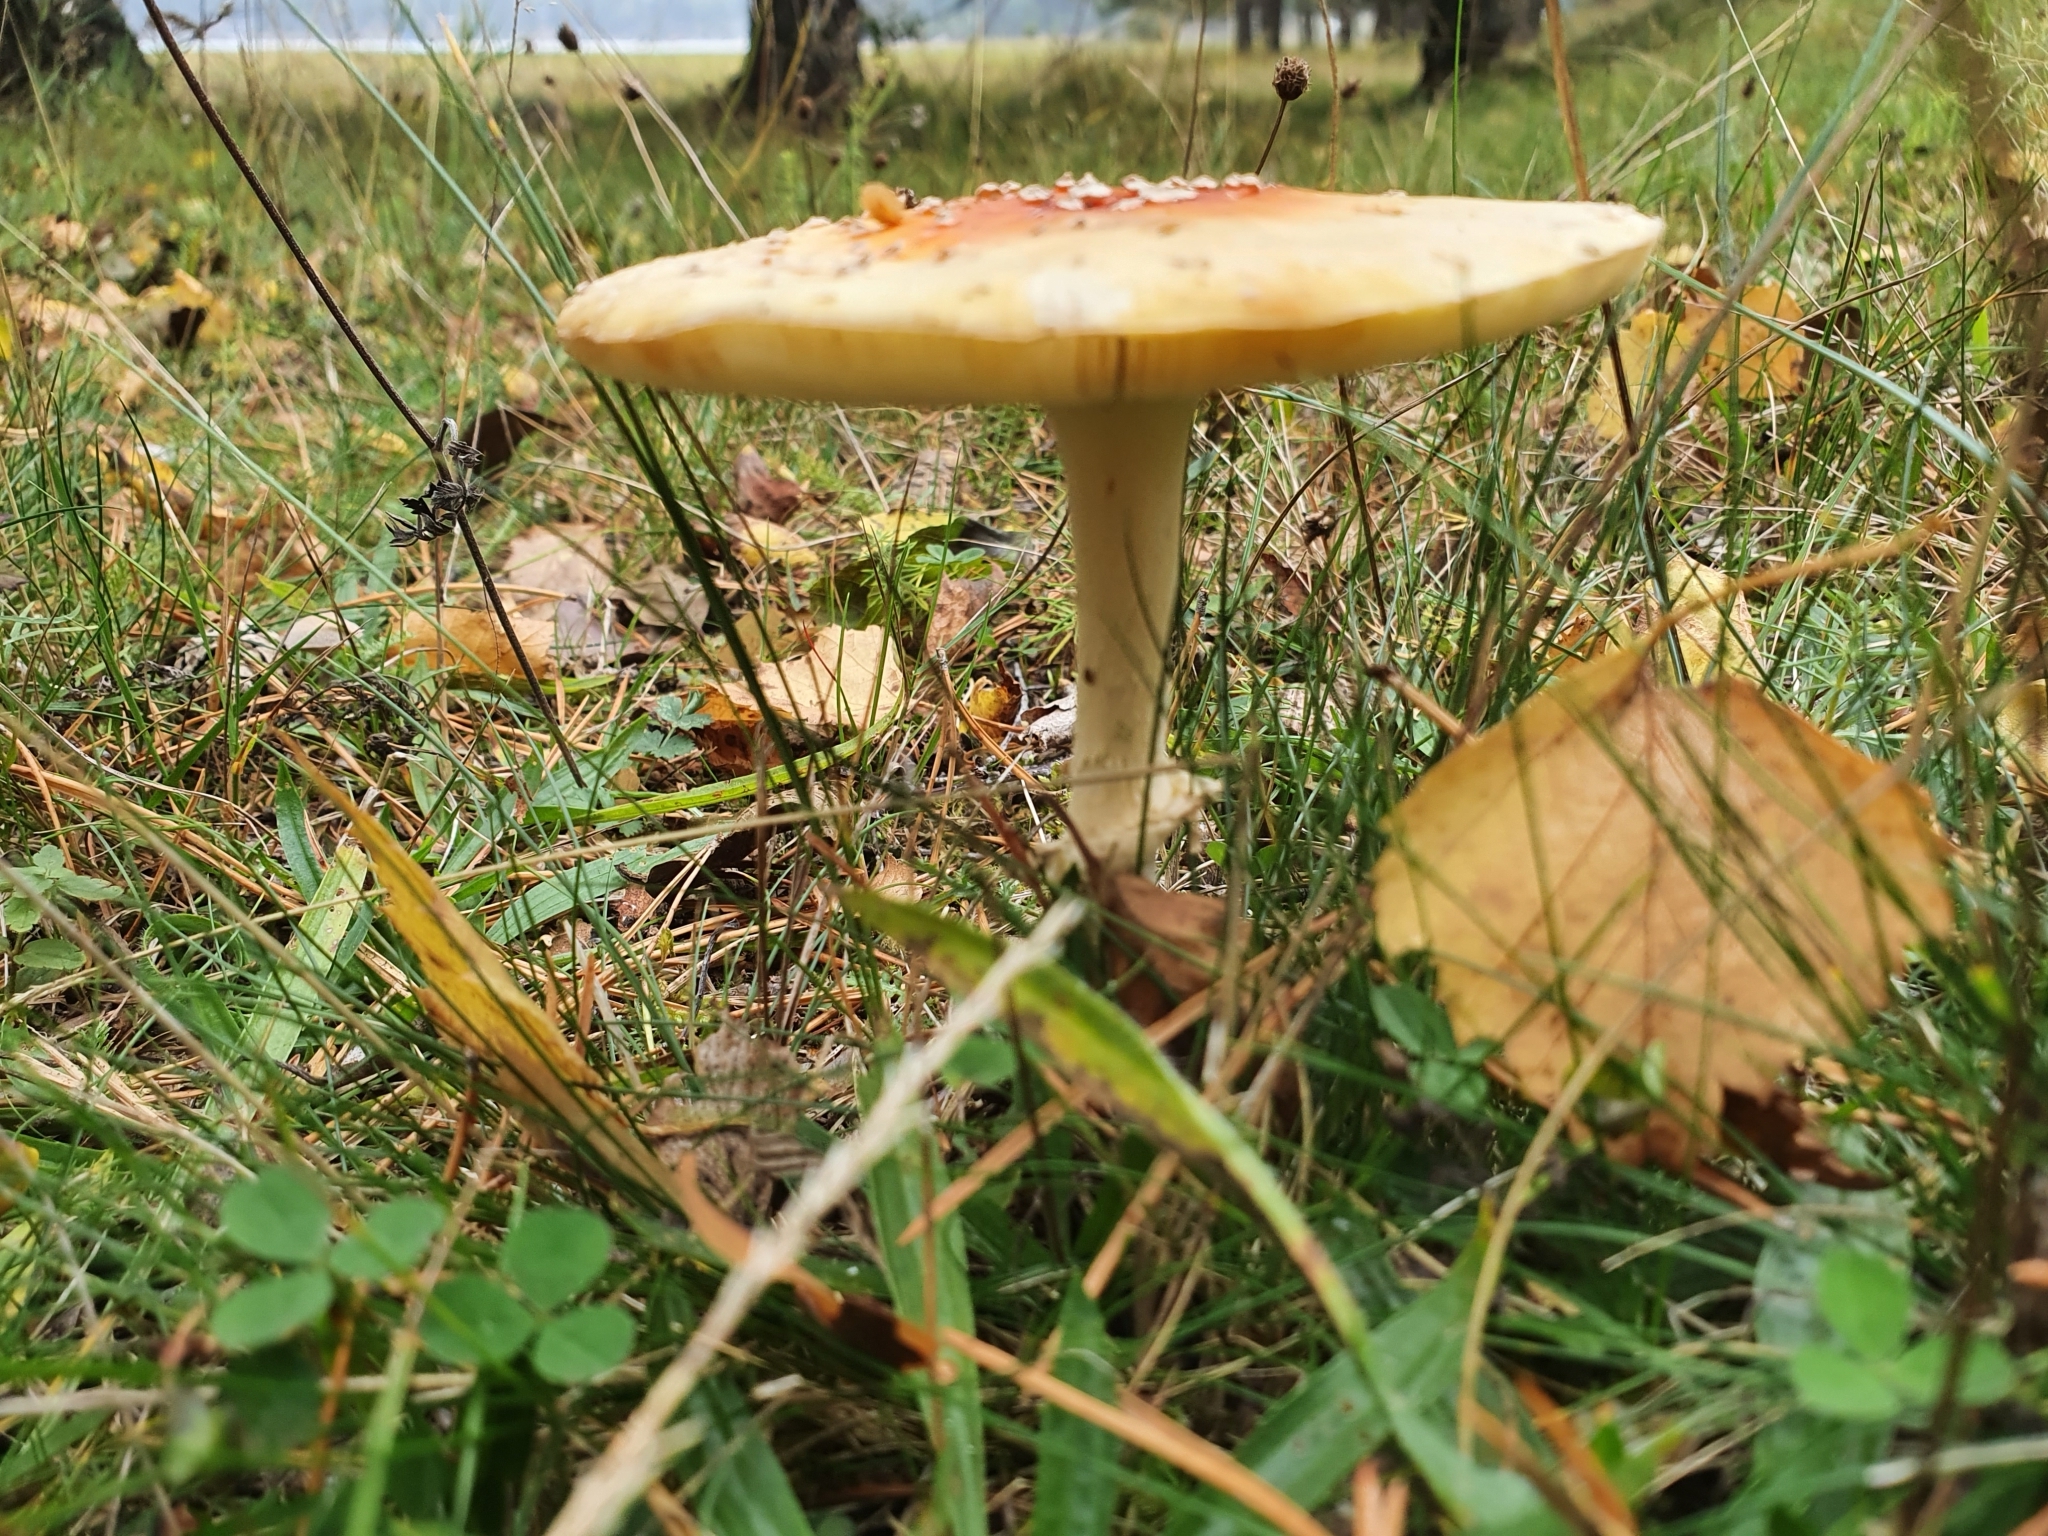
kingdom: Fungi
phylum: Basidiomycota
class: Agaricomycetes
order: Agaricales
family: Amanitaceae
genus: Amanita
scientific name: Amanita muscaria
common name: Fly agaric
